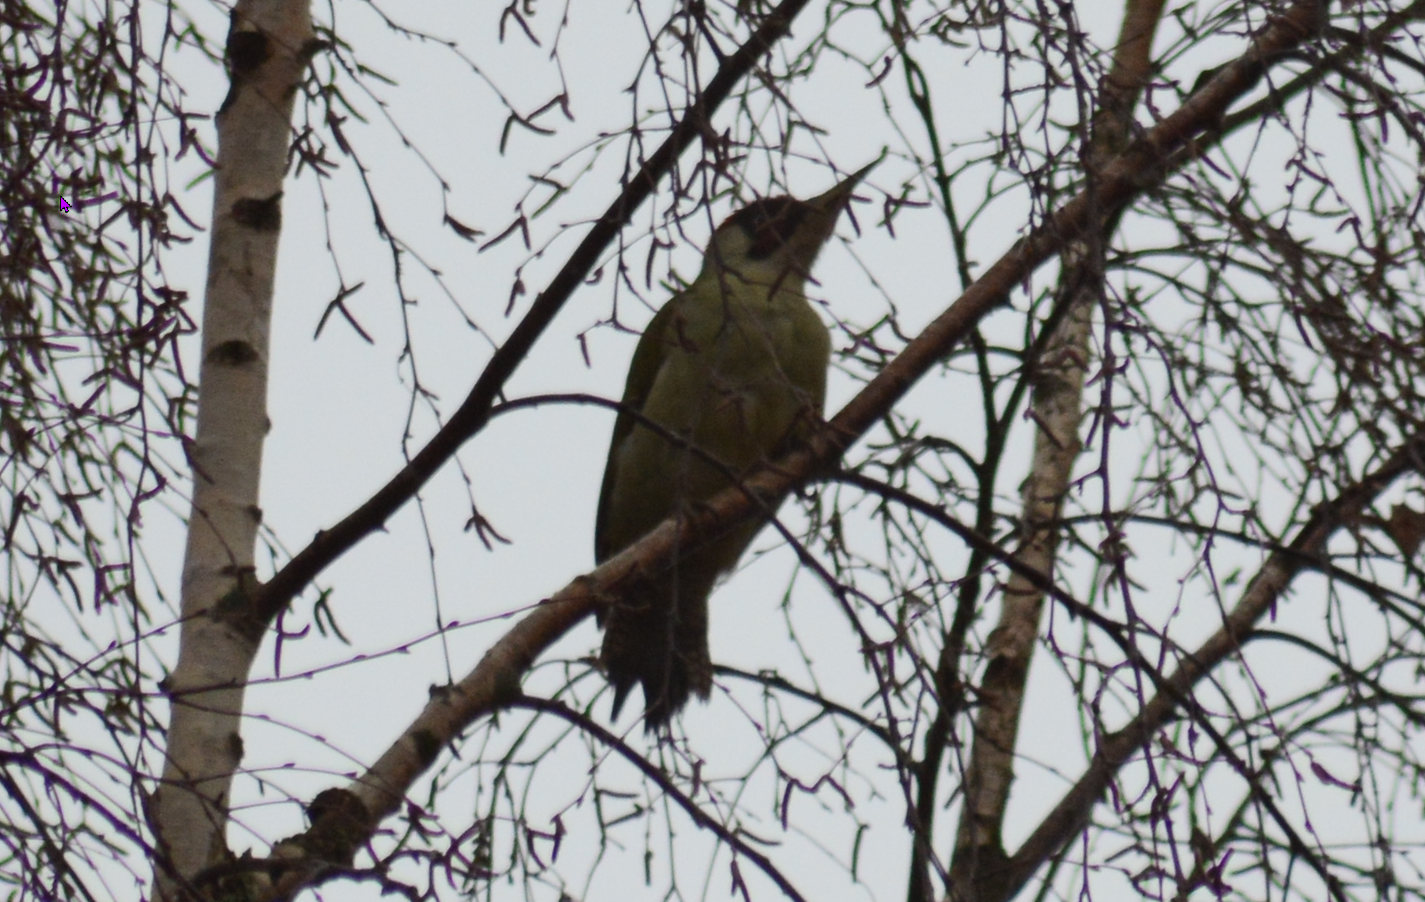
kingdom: Animalia
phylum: Chordata
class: Aves
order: Piciformes
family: Picidae
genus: Picus
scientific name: Picus viridis
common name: European green woodpecker
